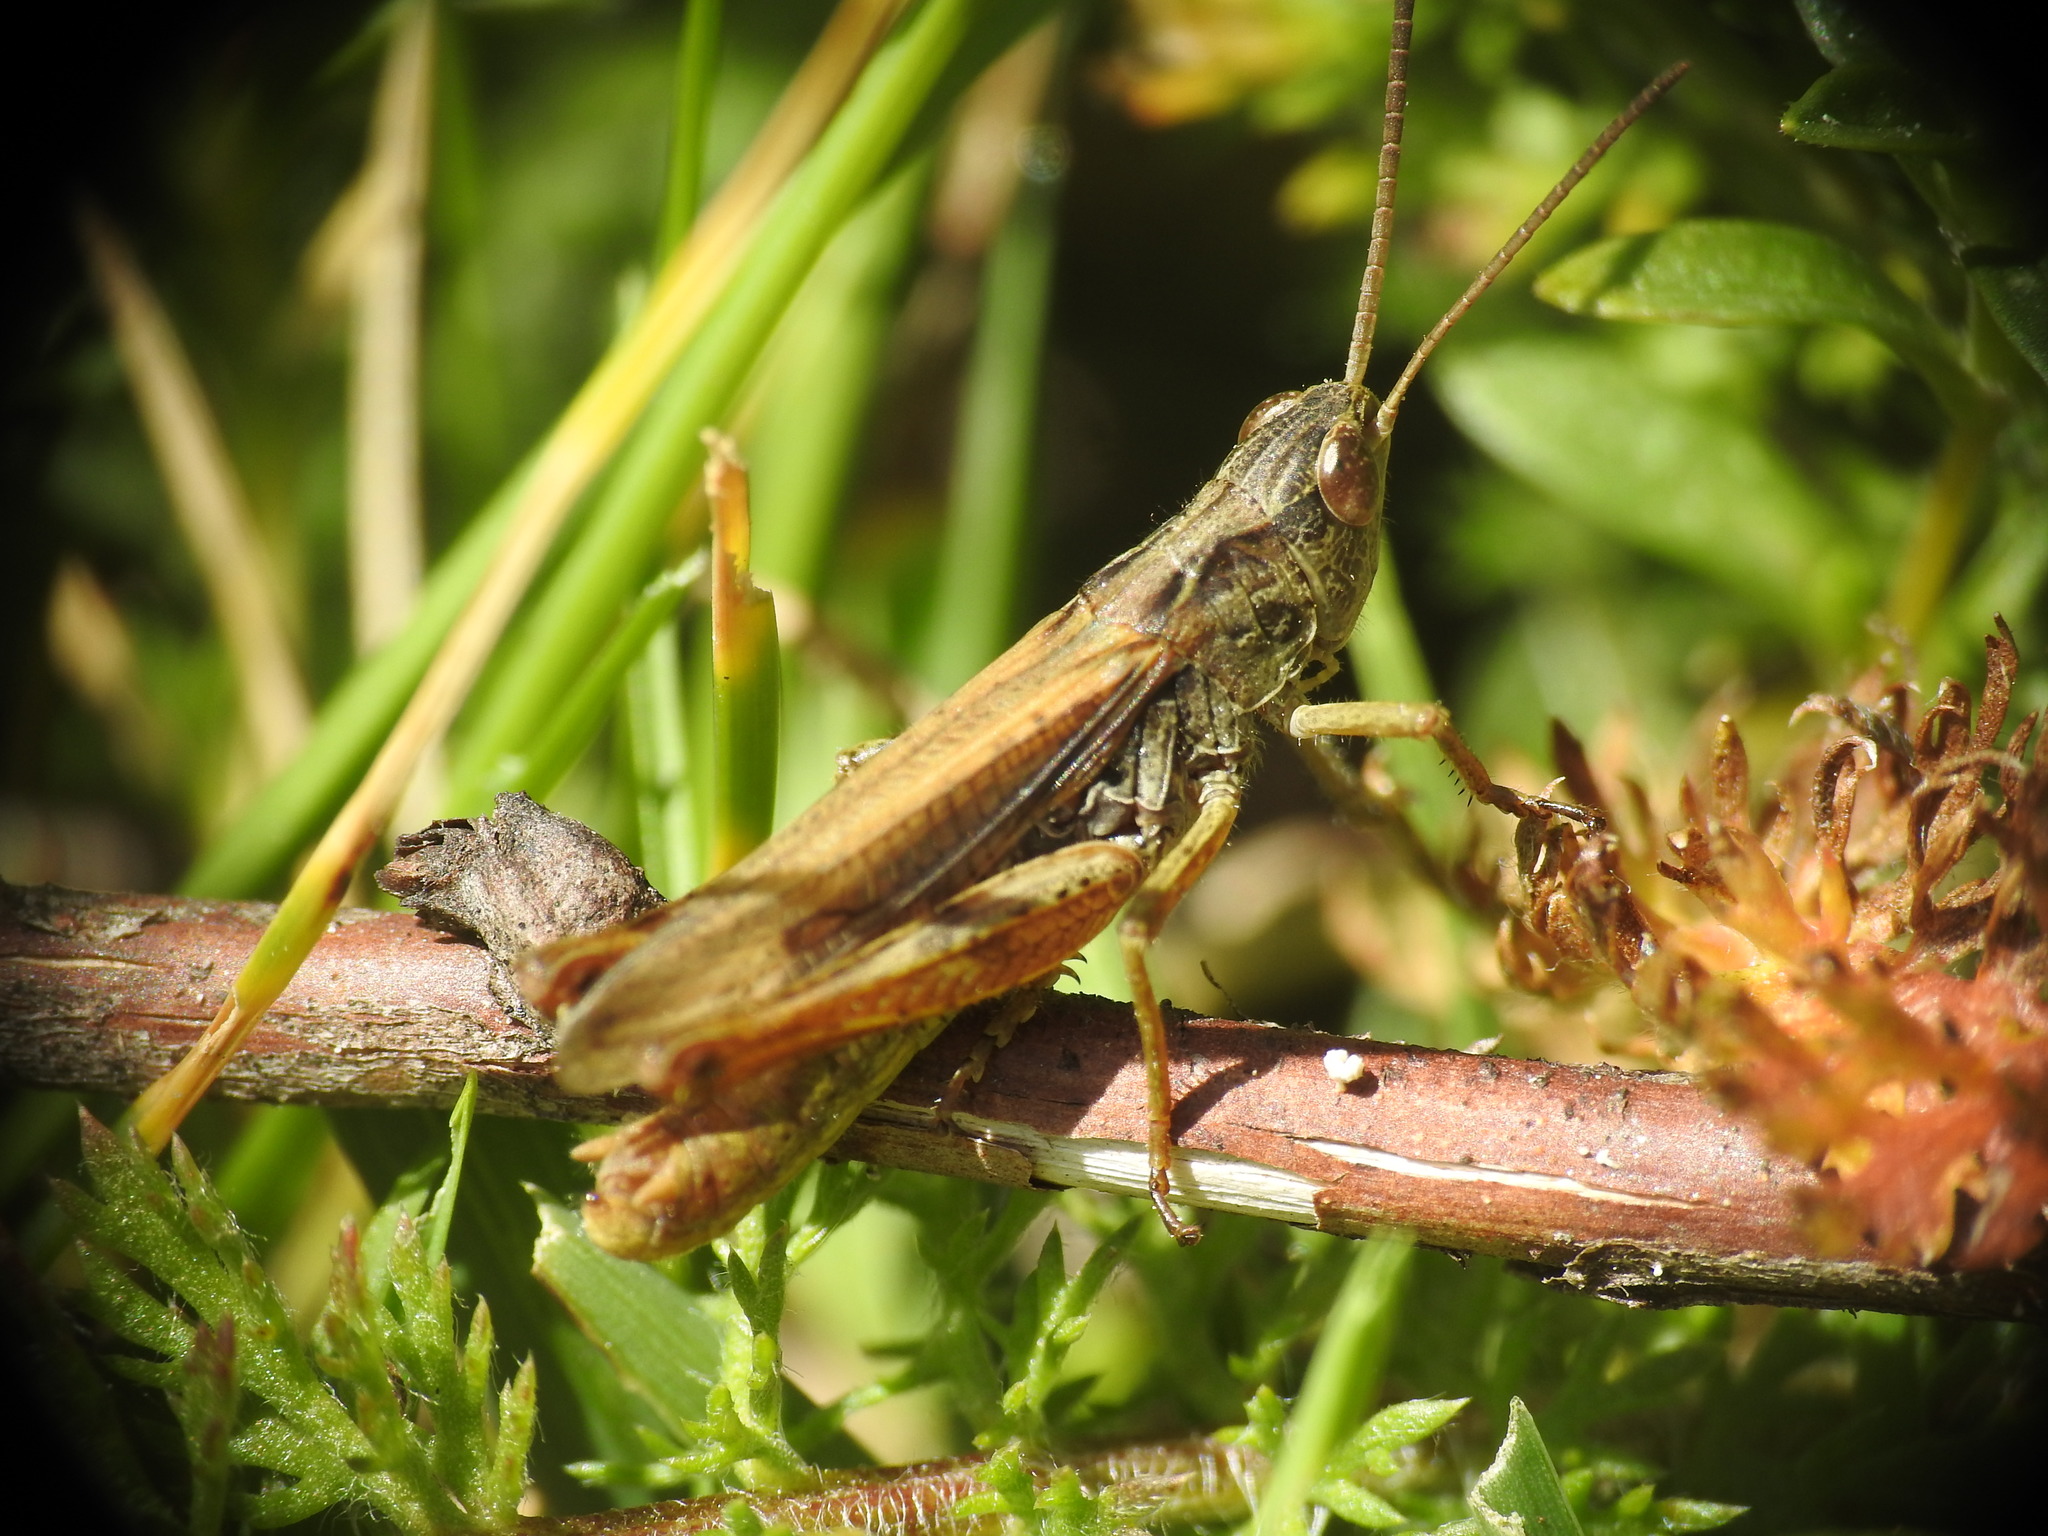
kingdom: Animalia
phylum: Arthropoda
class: Insecta
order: Orthoptera
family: Acrididae
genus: Chorthippus
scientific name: Chorthippus apricarius
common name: Upland field grasshopper
